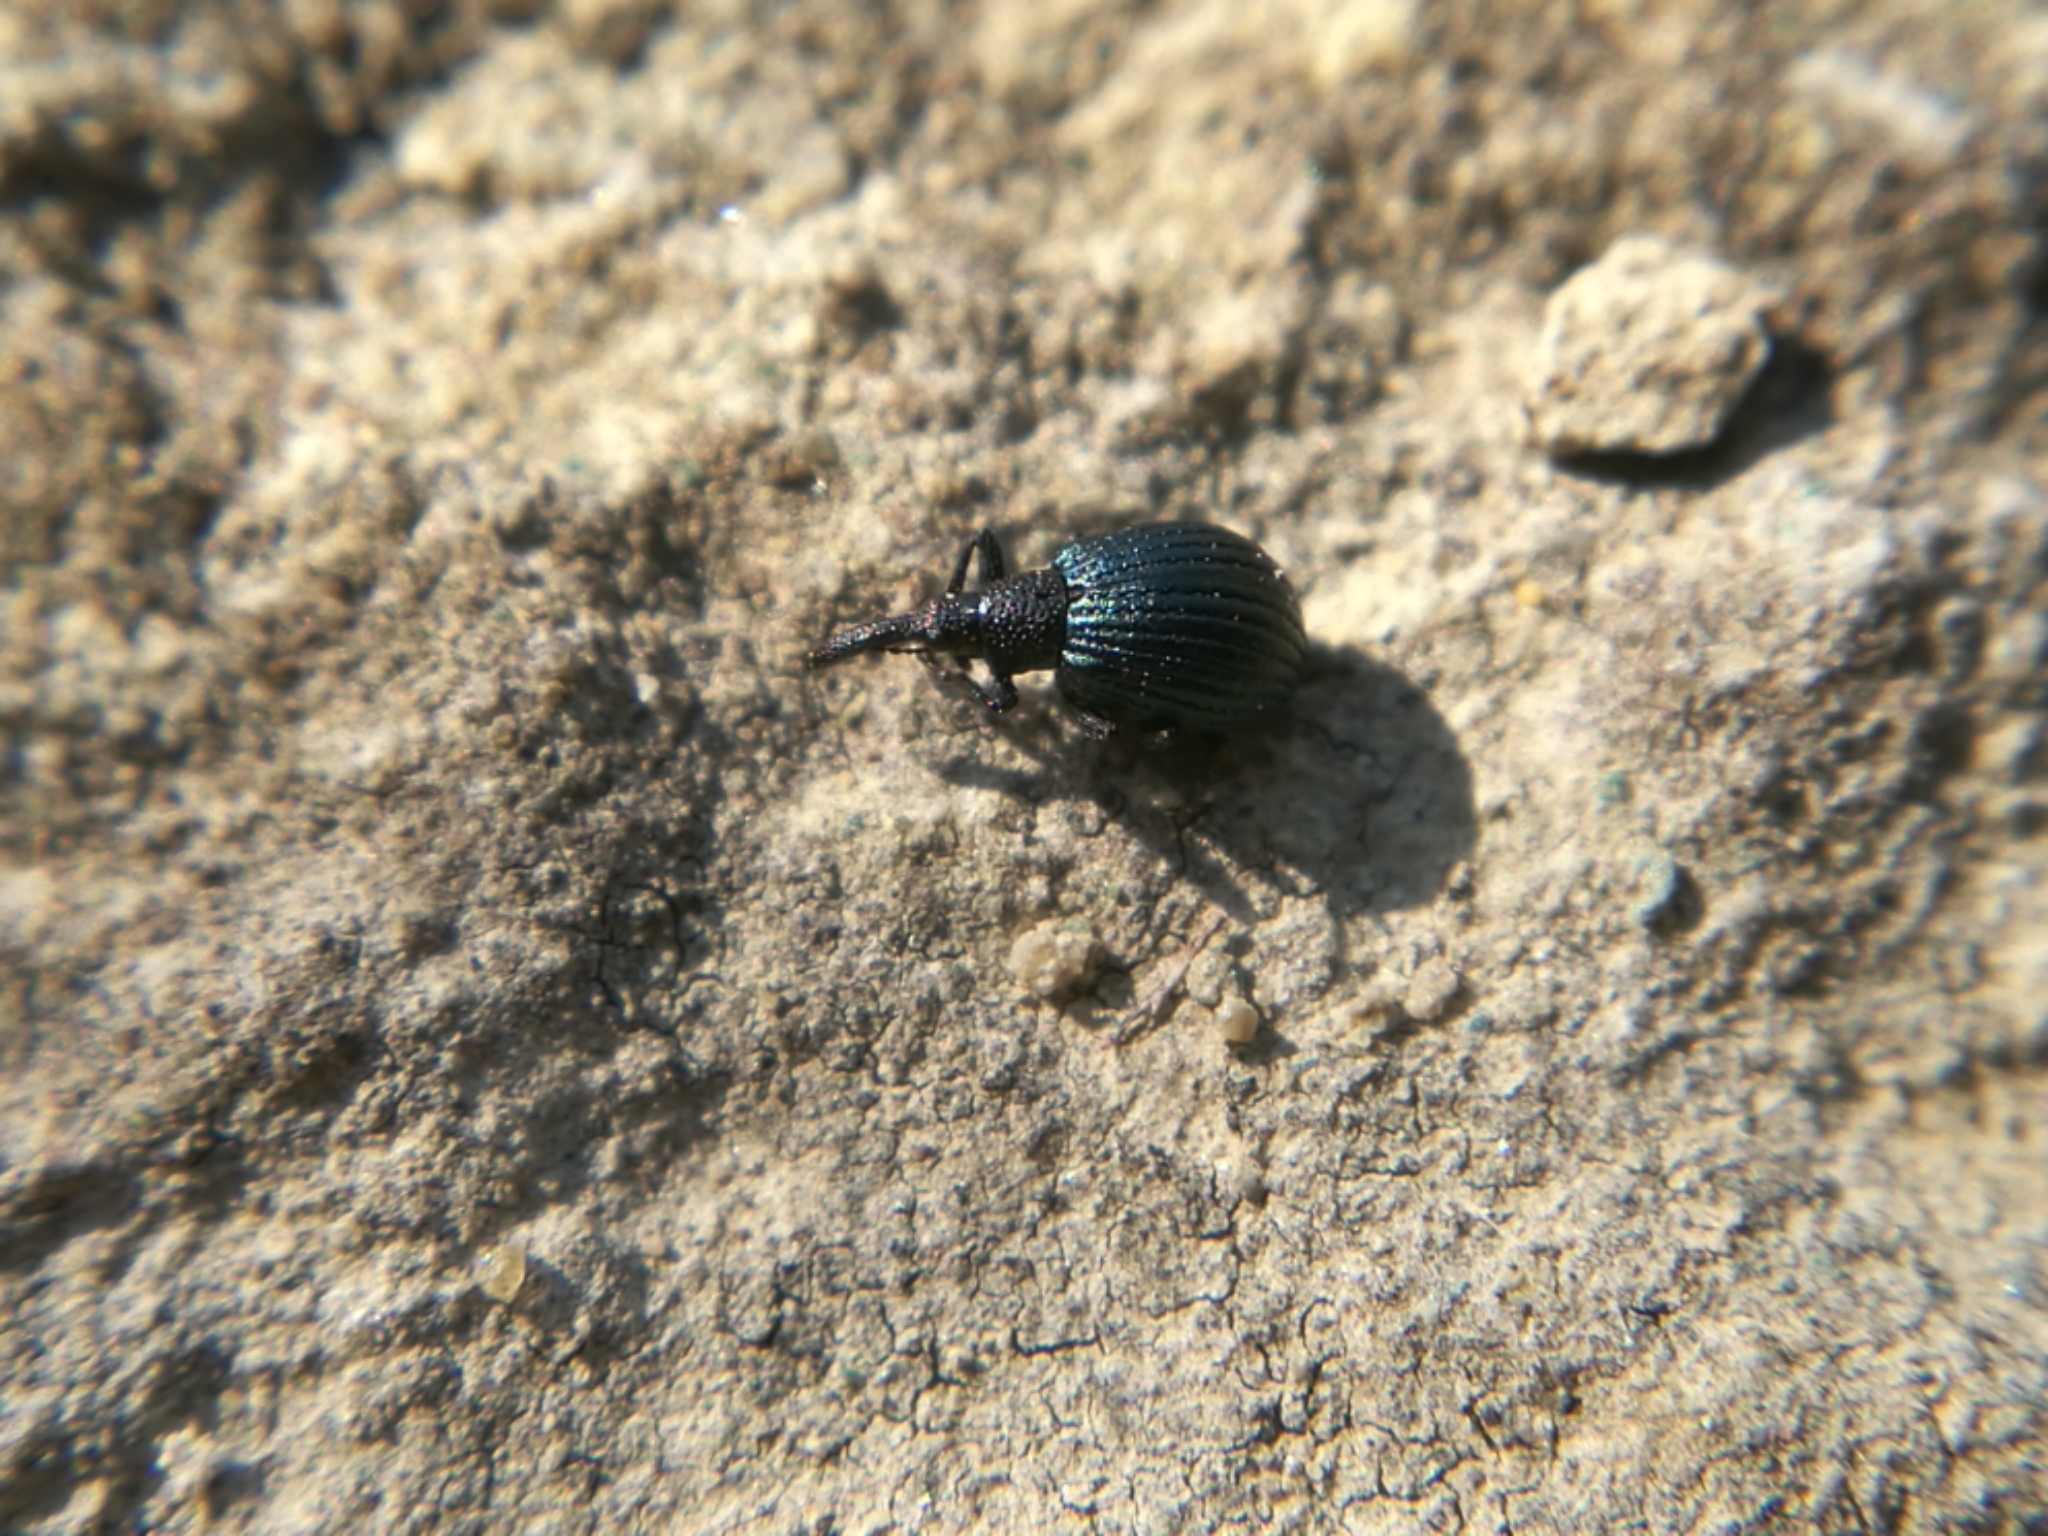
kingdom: Animalia
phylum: Arthropoda
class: Insecta
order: Coleoptera
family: Apionidae
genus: Holotrichapion
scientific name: Holotrichapion pisi
